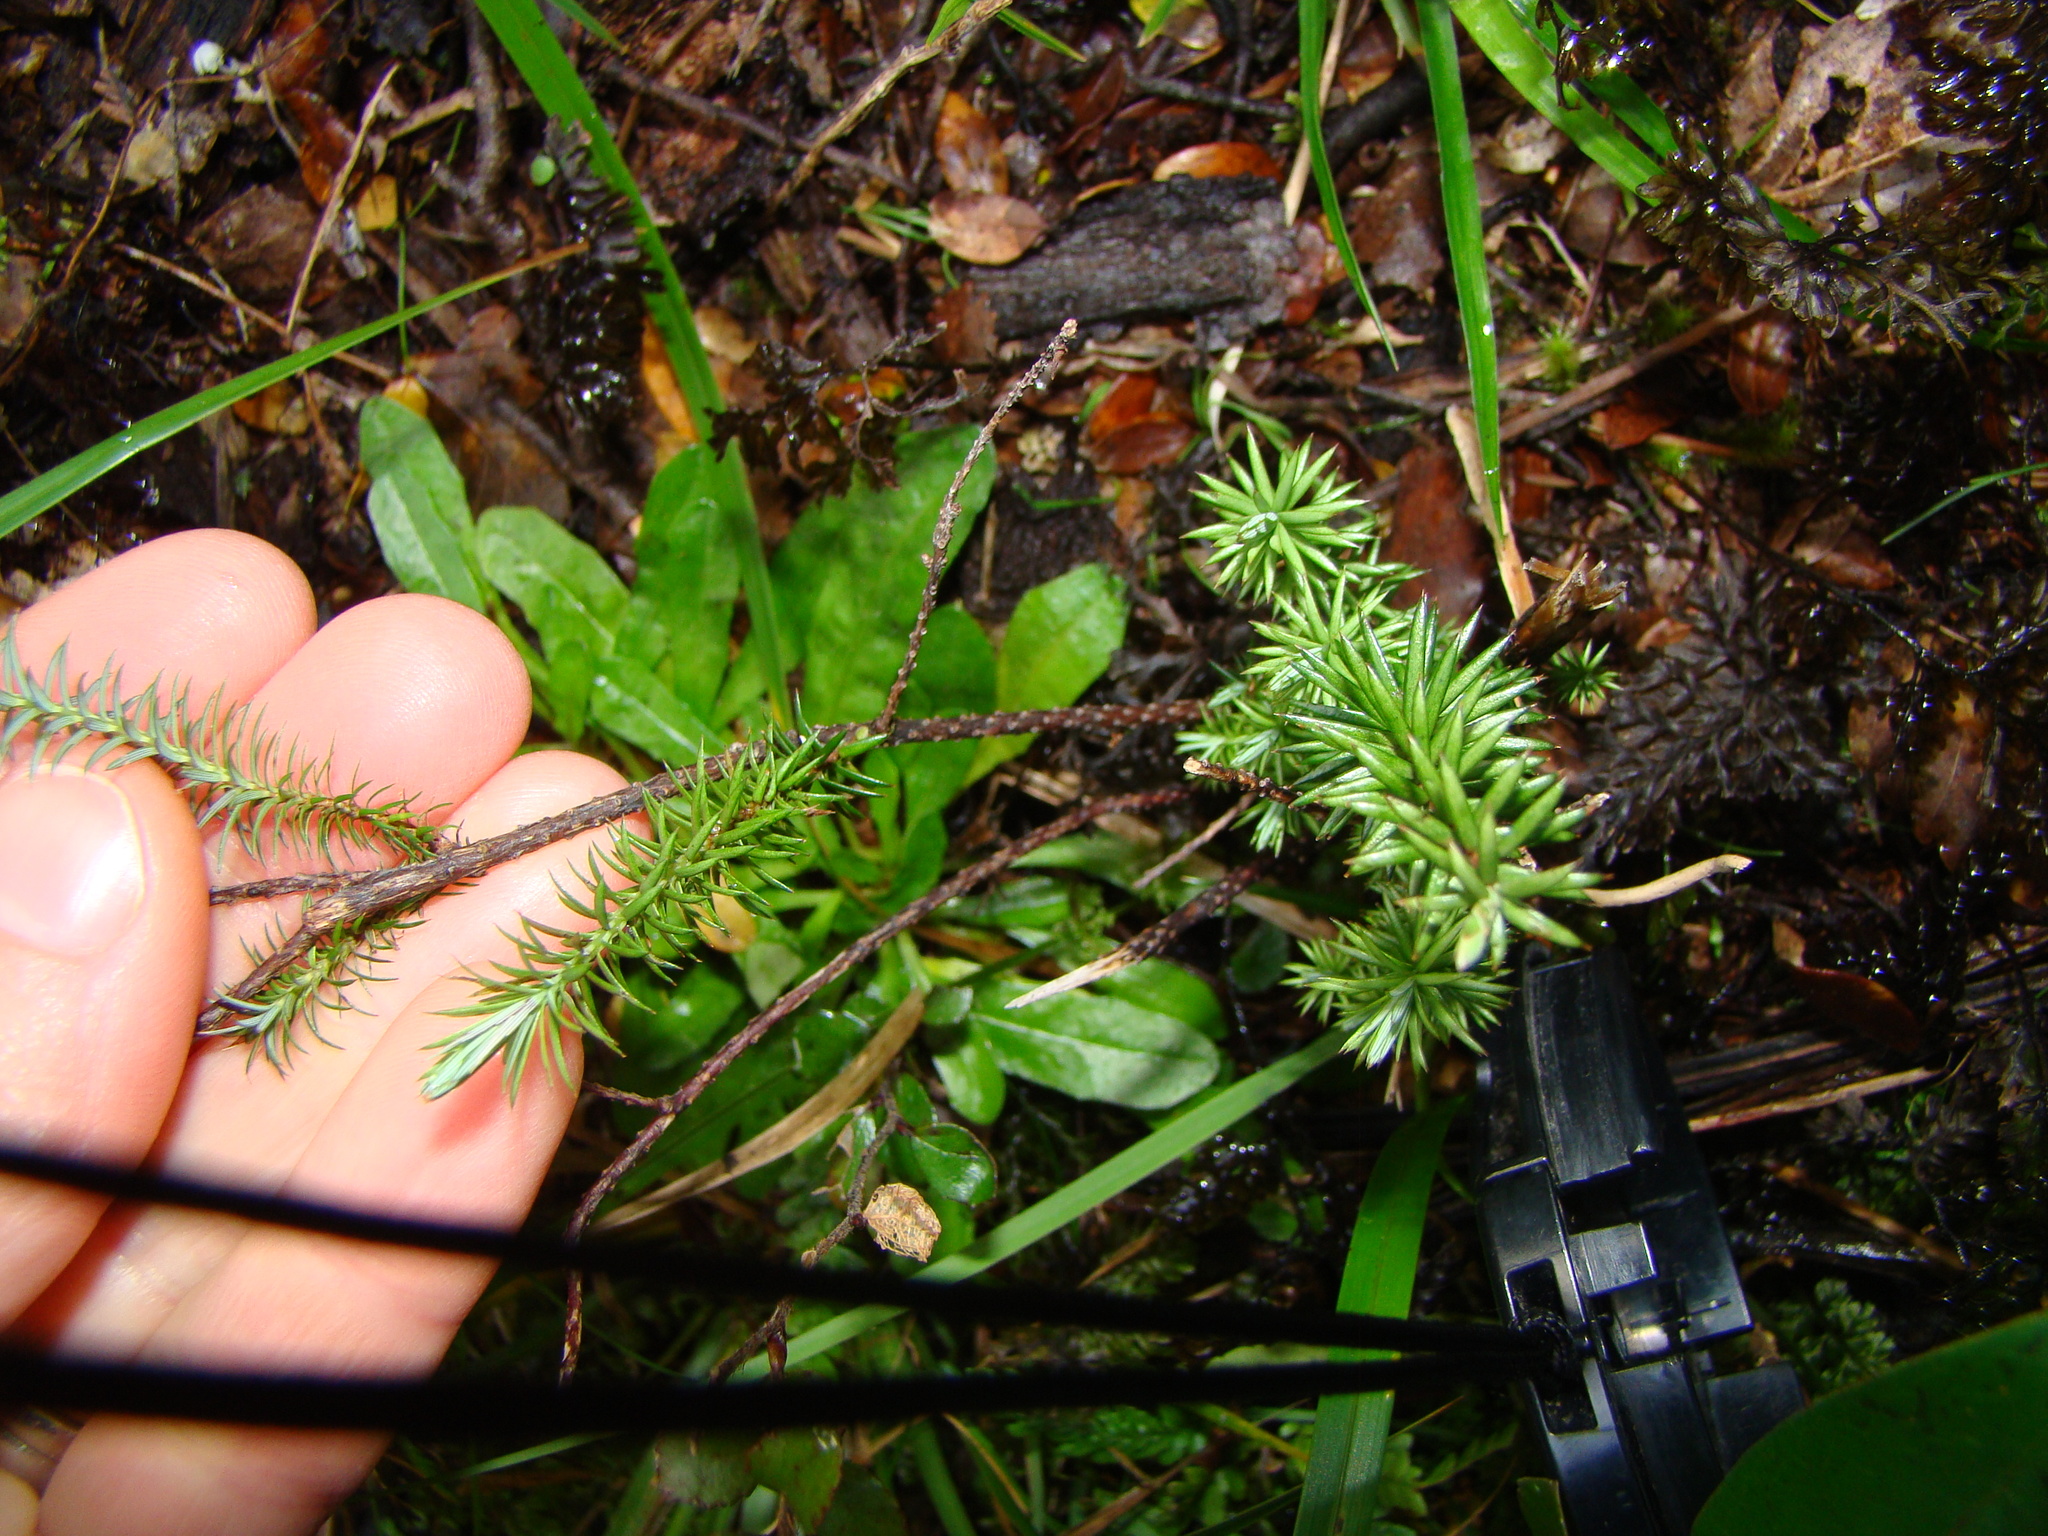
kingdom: Plantae
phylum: Tracheophyta
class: Magnoliopsida
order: Ericales
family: Ericaceae
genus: Leptecophylla
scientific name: Leptecophylla juniperina
